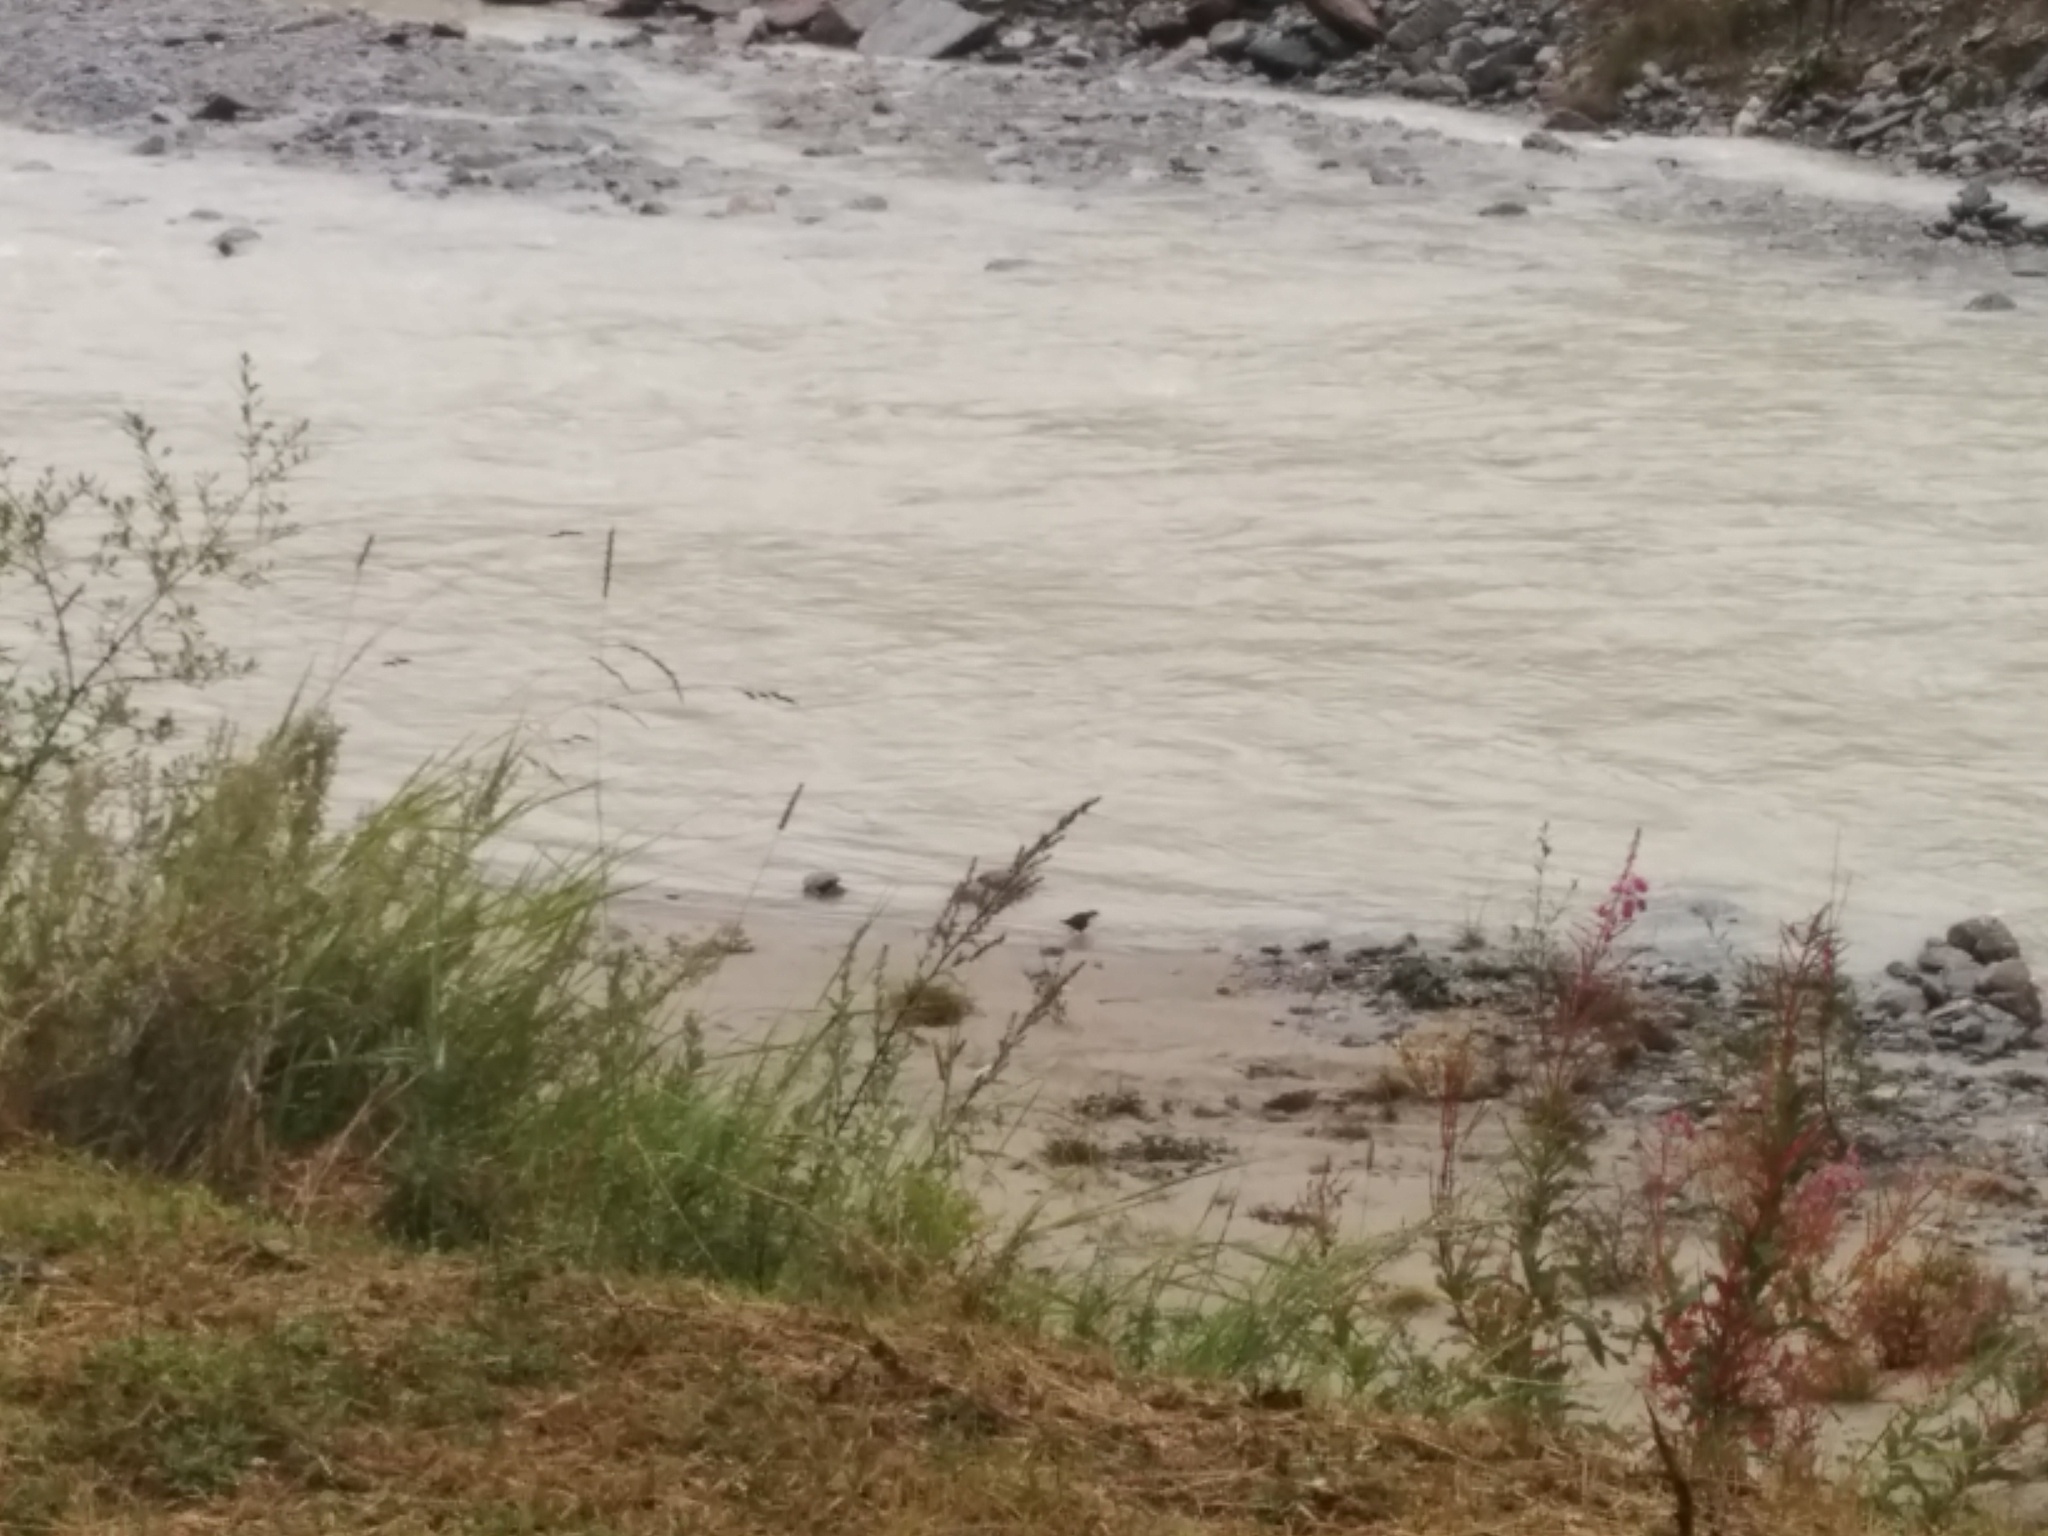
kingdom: Animalia
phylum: Chordata
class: Aves
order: Passeriformes
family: Cinclidae
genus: Cinclus
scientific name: Cinclus cinclus
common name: White-throated dipper
